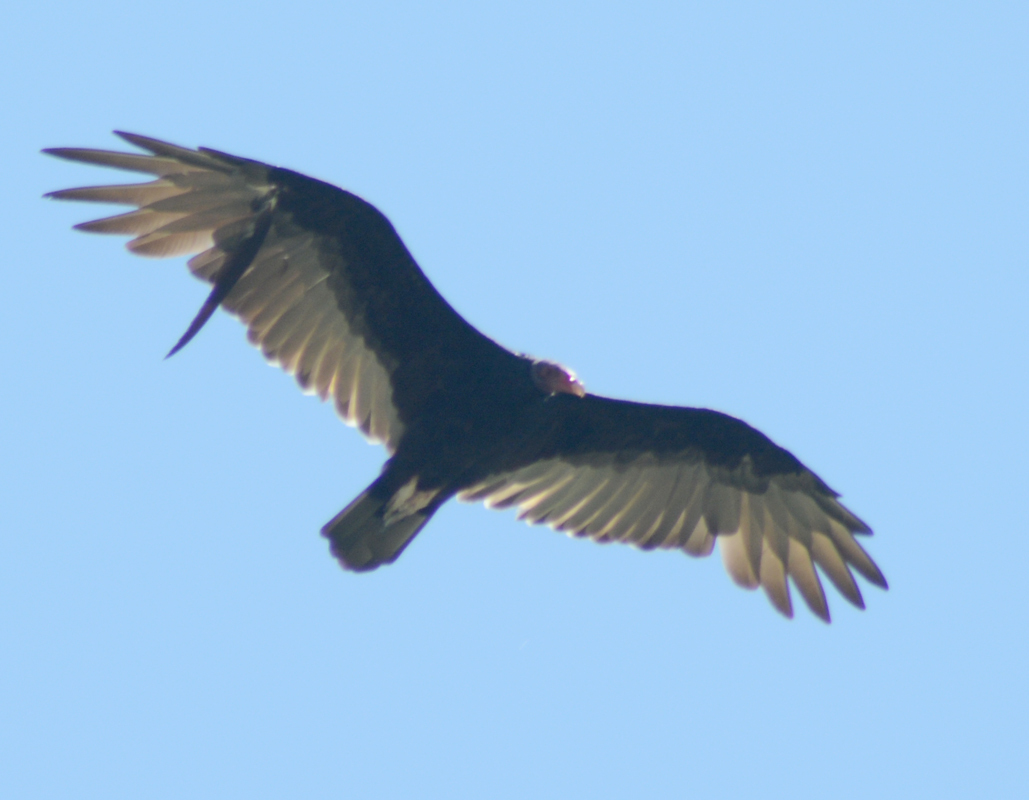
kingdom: Animalia
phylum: Chordata
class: Aves
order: Accipitriformes
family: Cathartidae
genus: Cathartes
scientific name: Cathartes aura
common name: Turkey vulture
